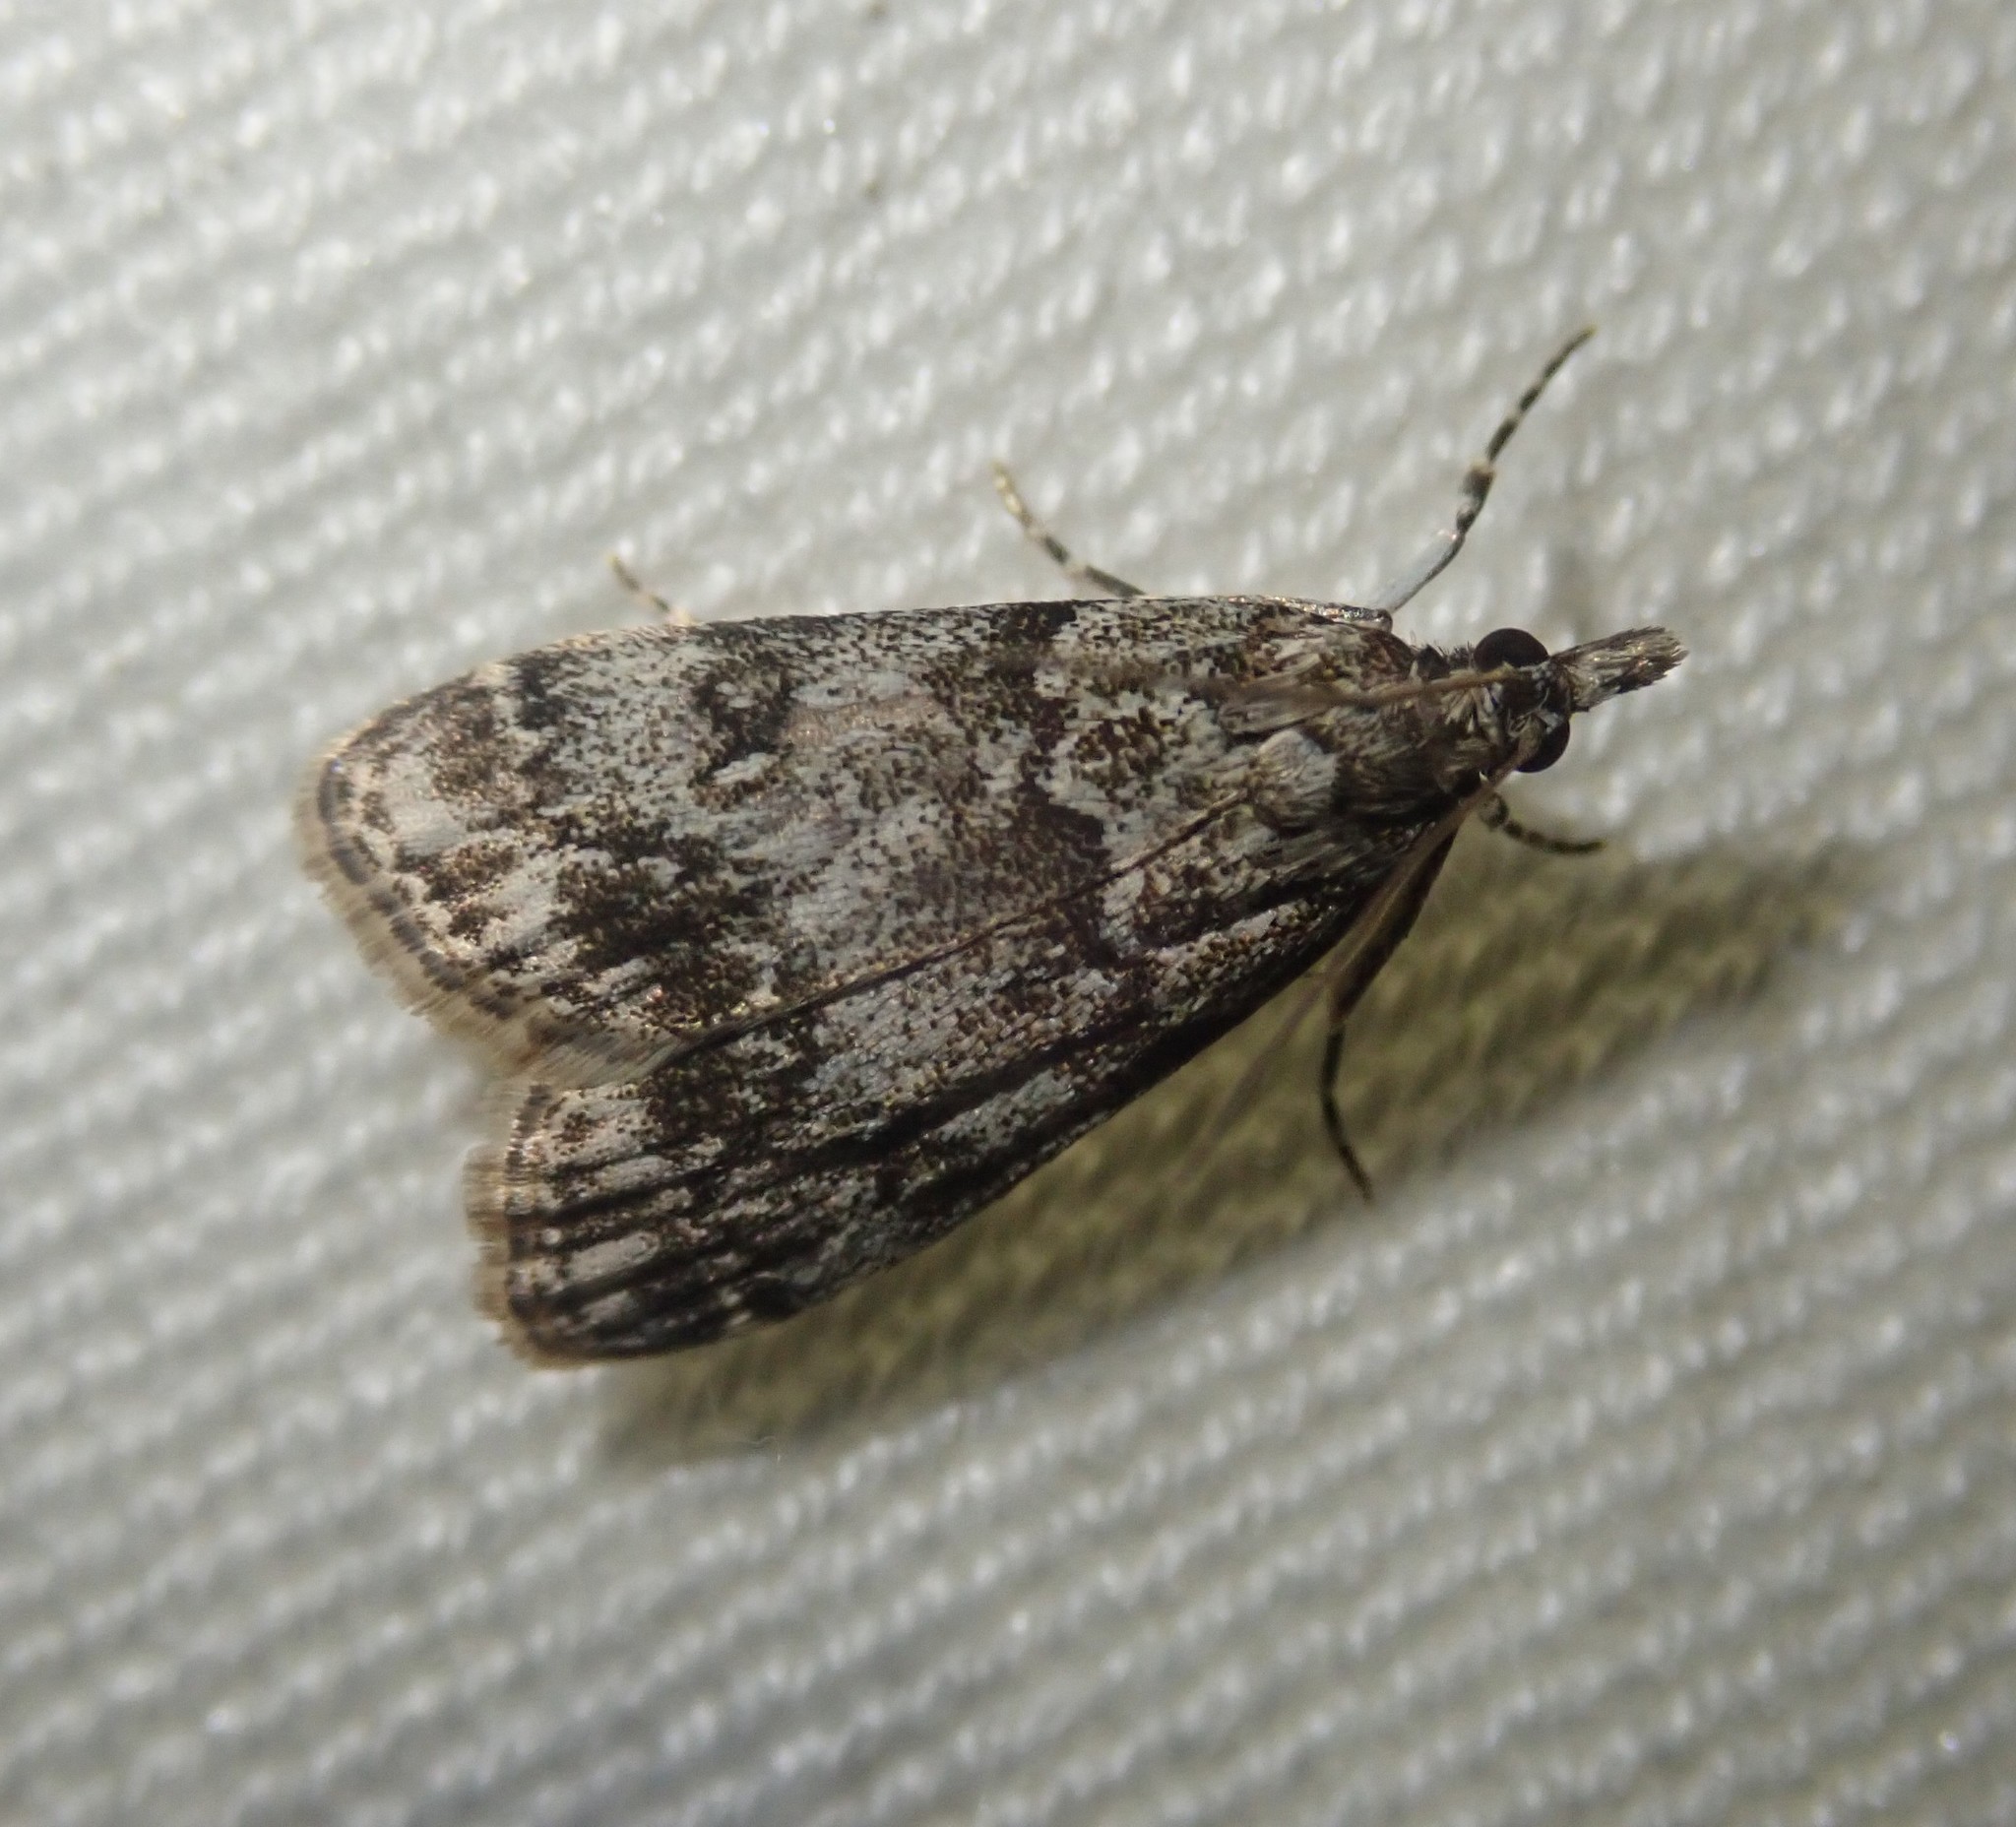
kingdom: Animalia
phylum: Arthropoda
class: Insecta
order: Lepidoptera
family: Crambidae
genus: Eudonia
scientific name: Eudonia lacustrata
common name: Little grey
